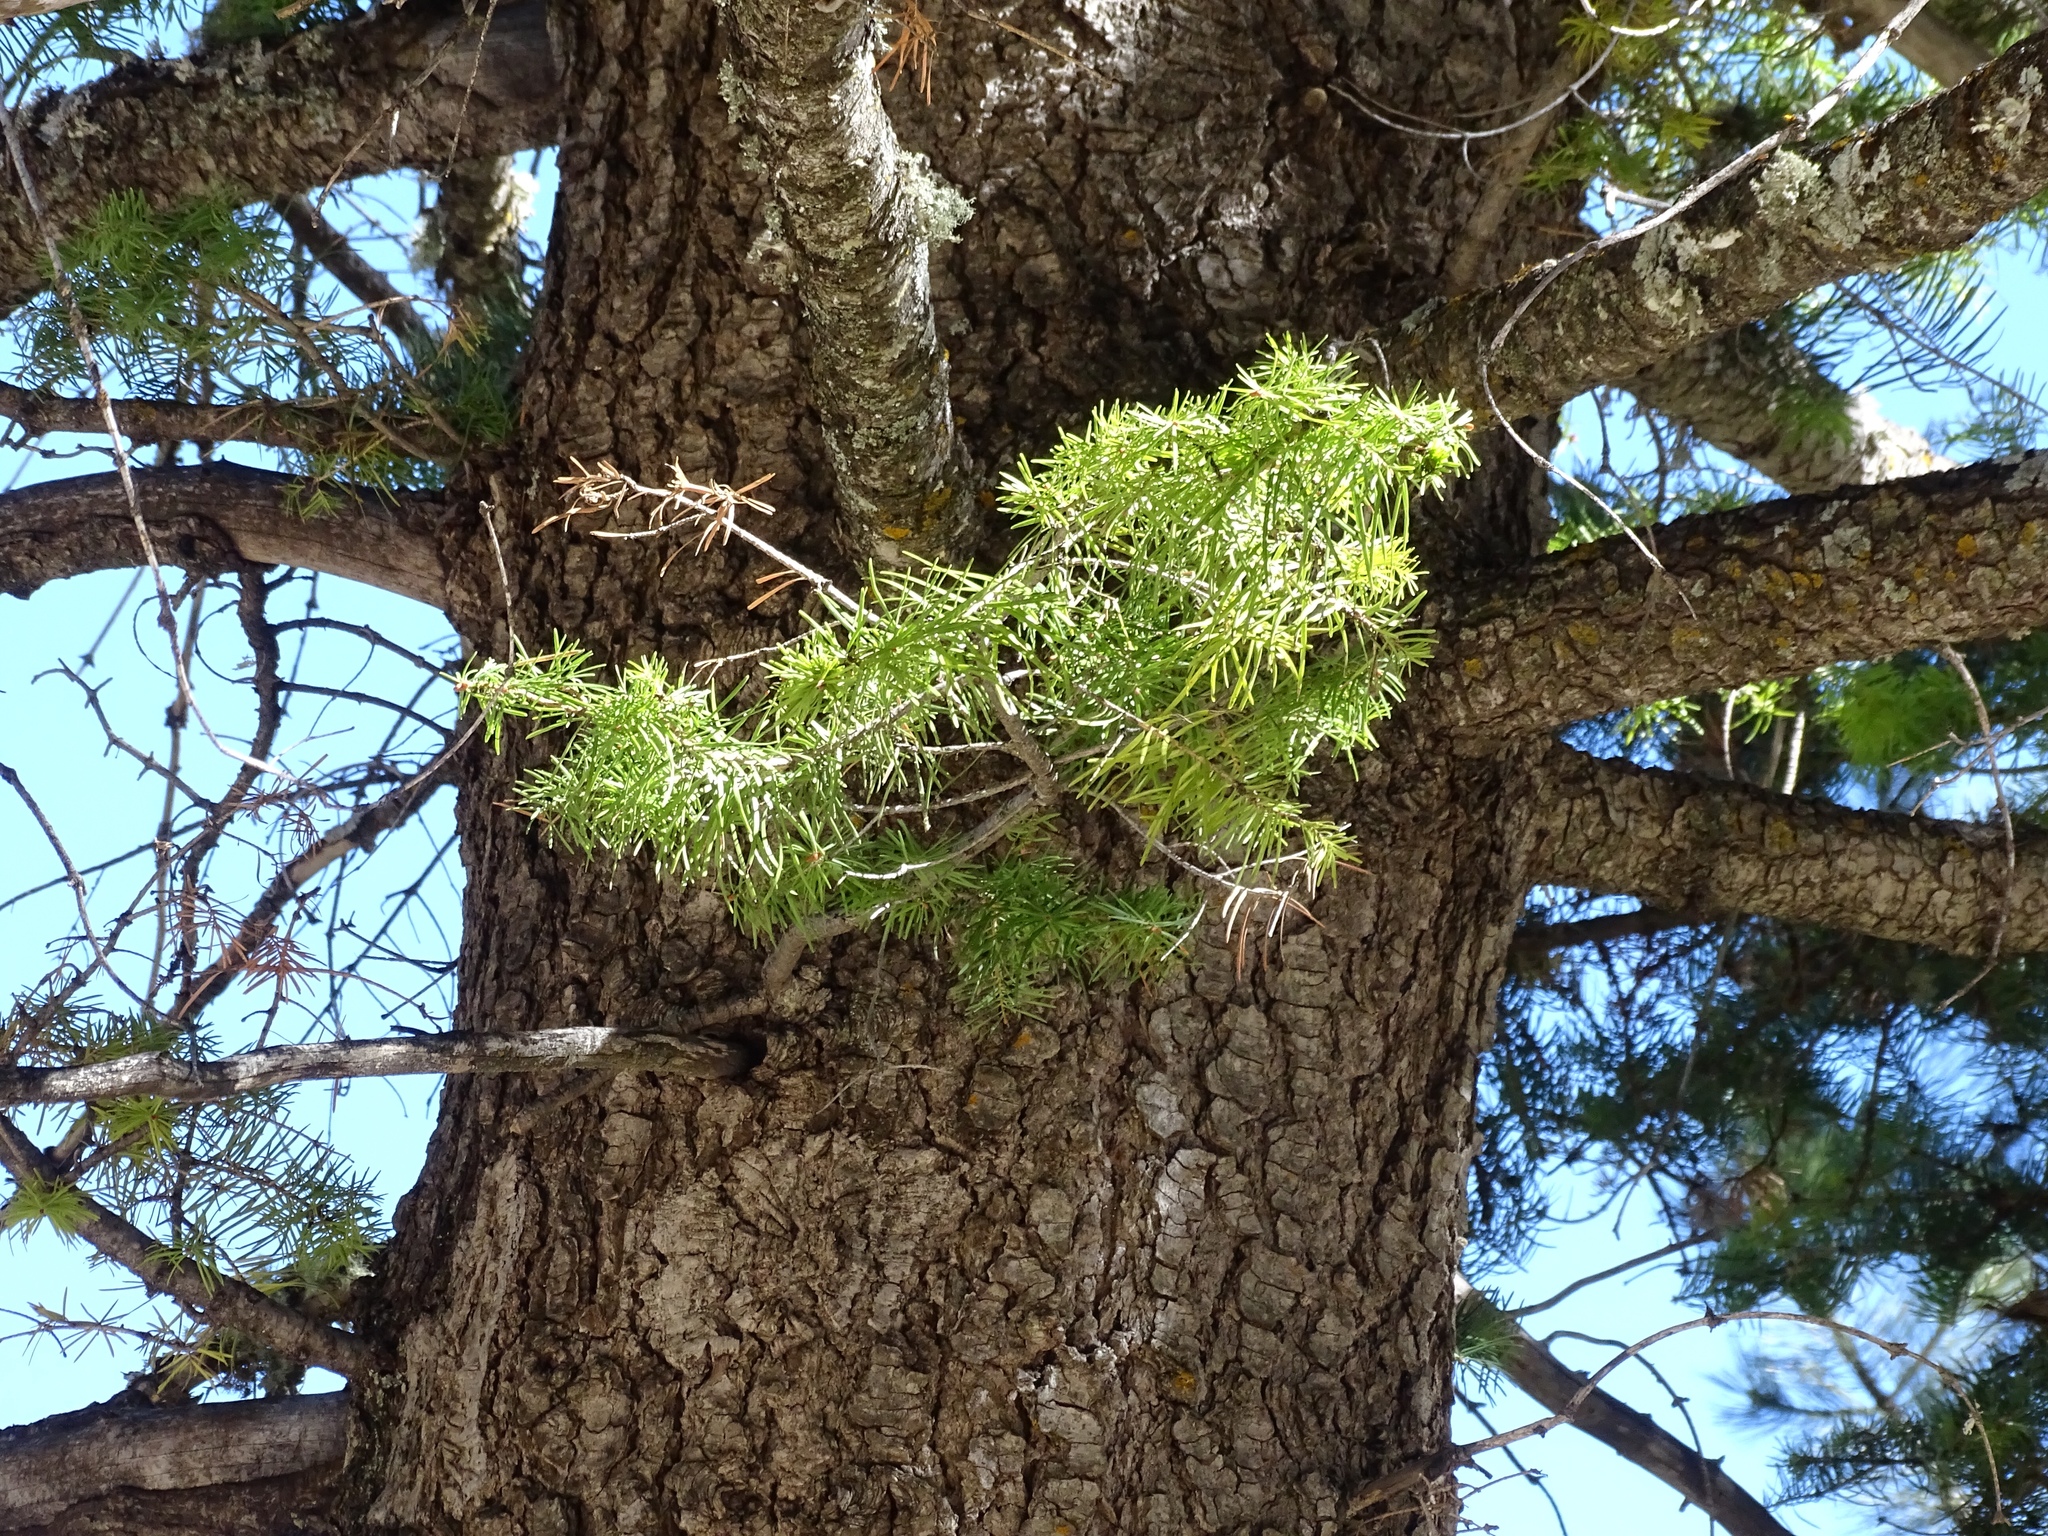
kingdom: Plantae
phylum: Tracheophyta
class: Pinopsida
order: Pinales
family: Pinaceae
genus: Abies
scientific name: Abies concolor
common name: Colorado fir
